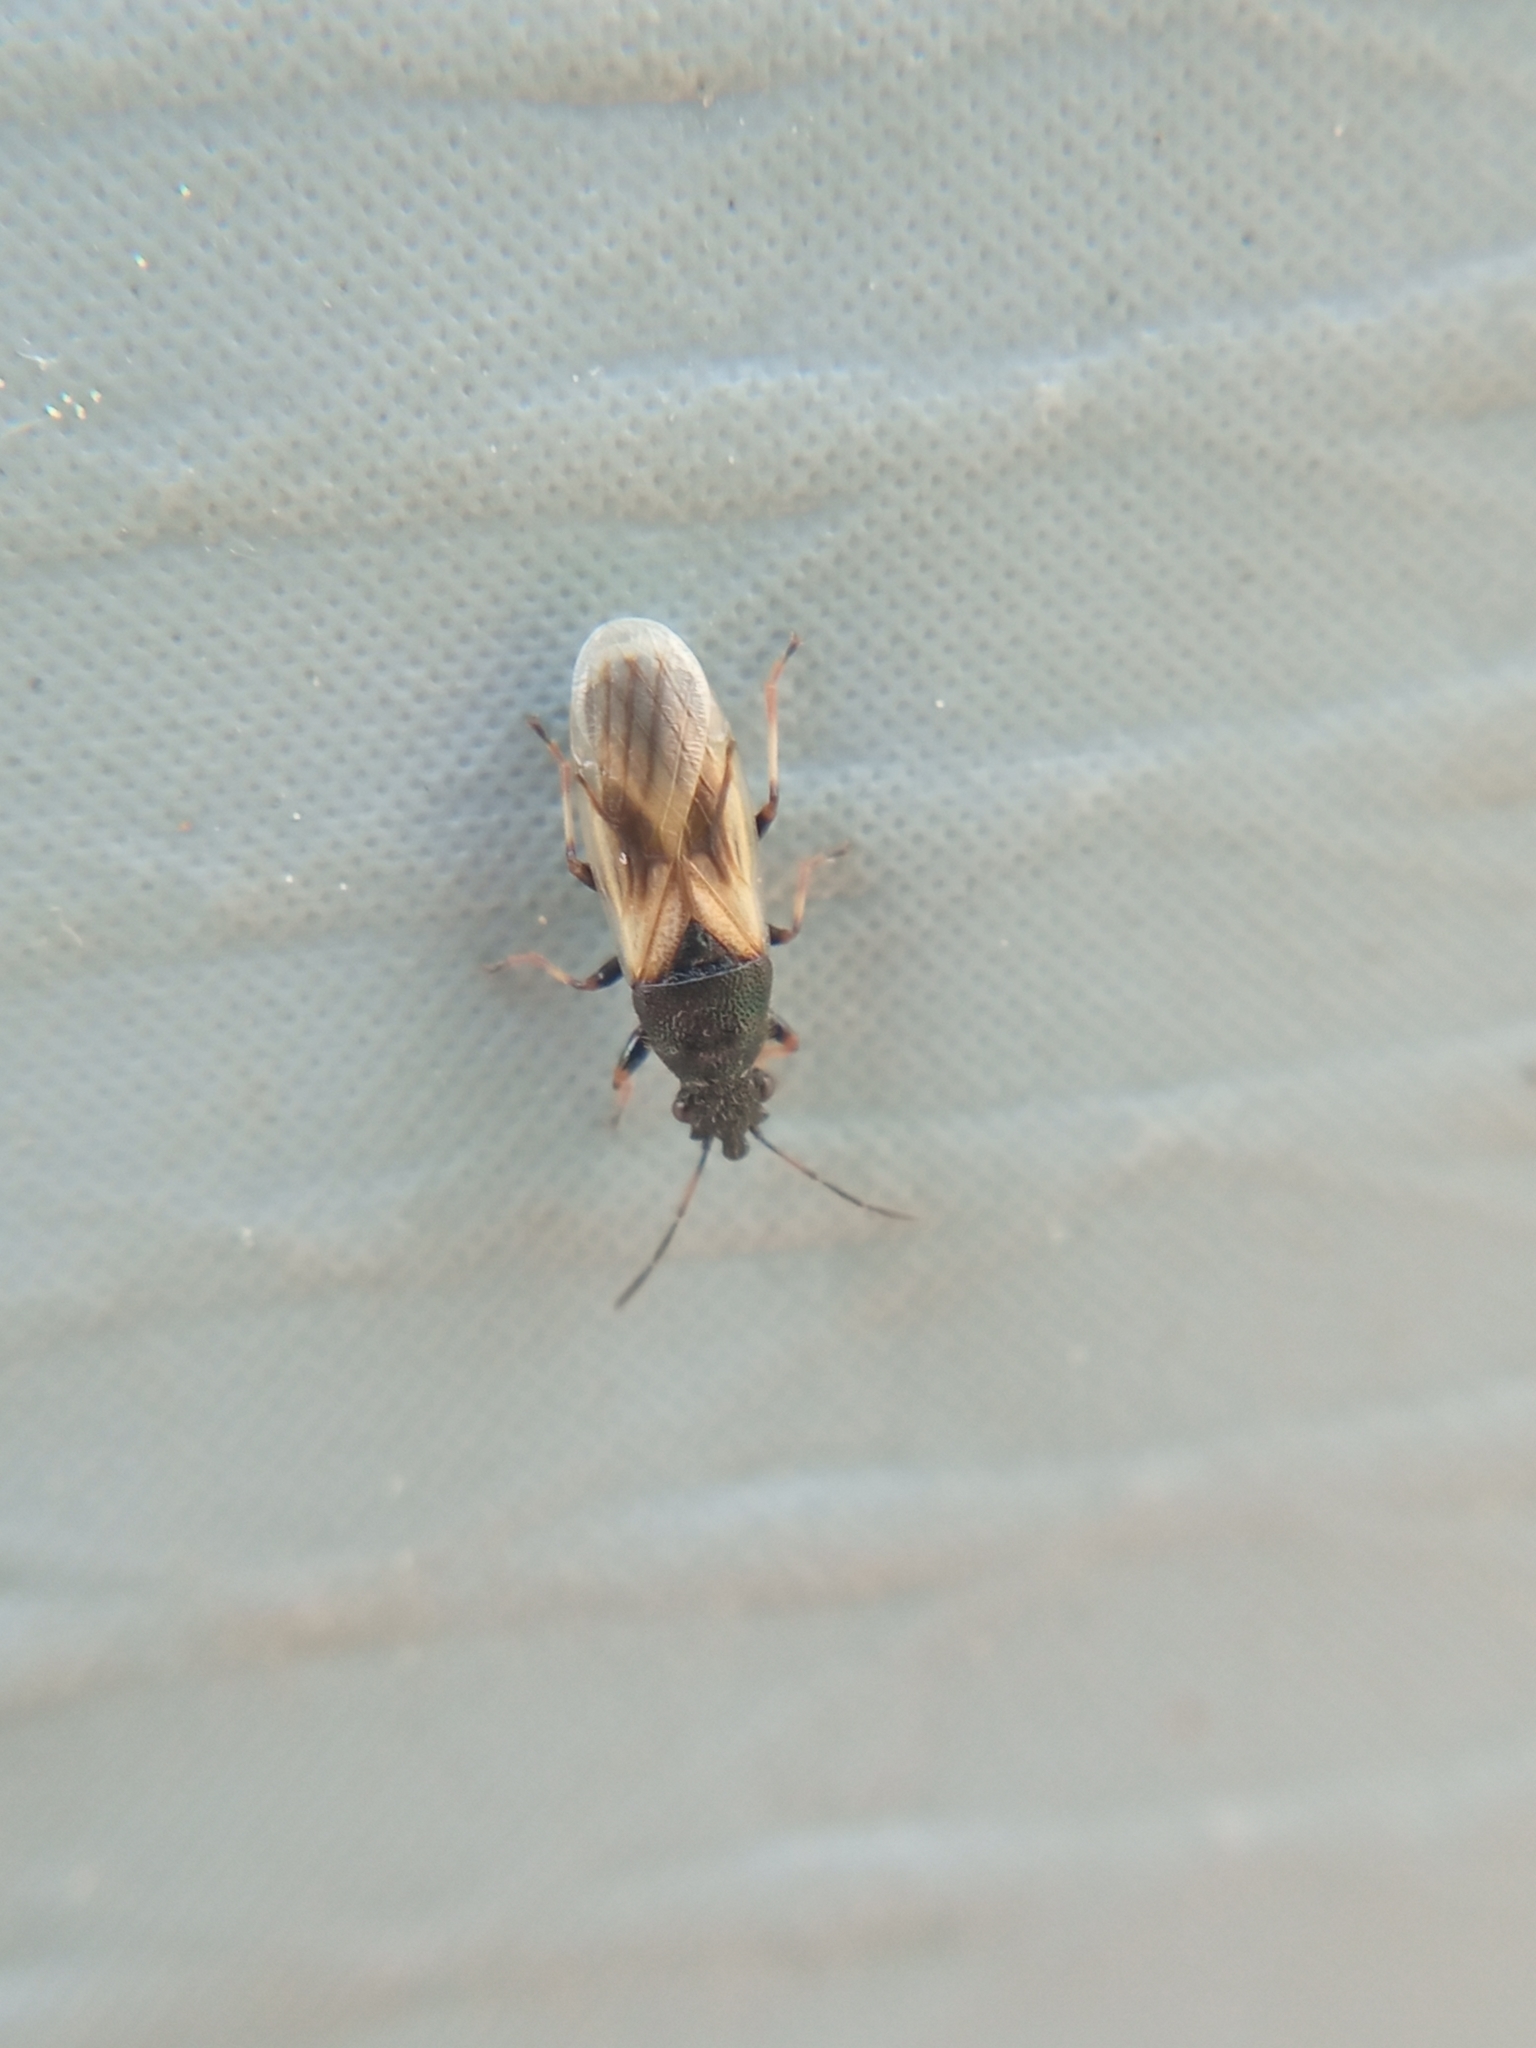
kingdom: Animalia
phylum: Arthropoda
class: Insecta
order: Hemiptera
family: Oxycarenidae
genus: Metopoplax
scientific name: Metopoplax ditomoides
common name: Seed bug
